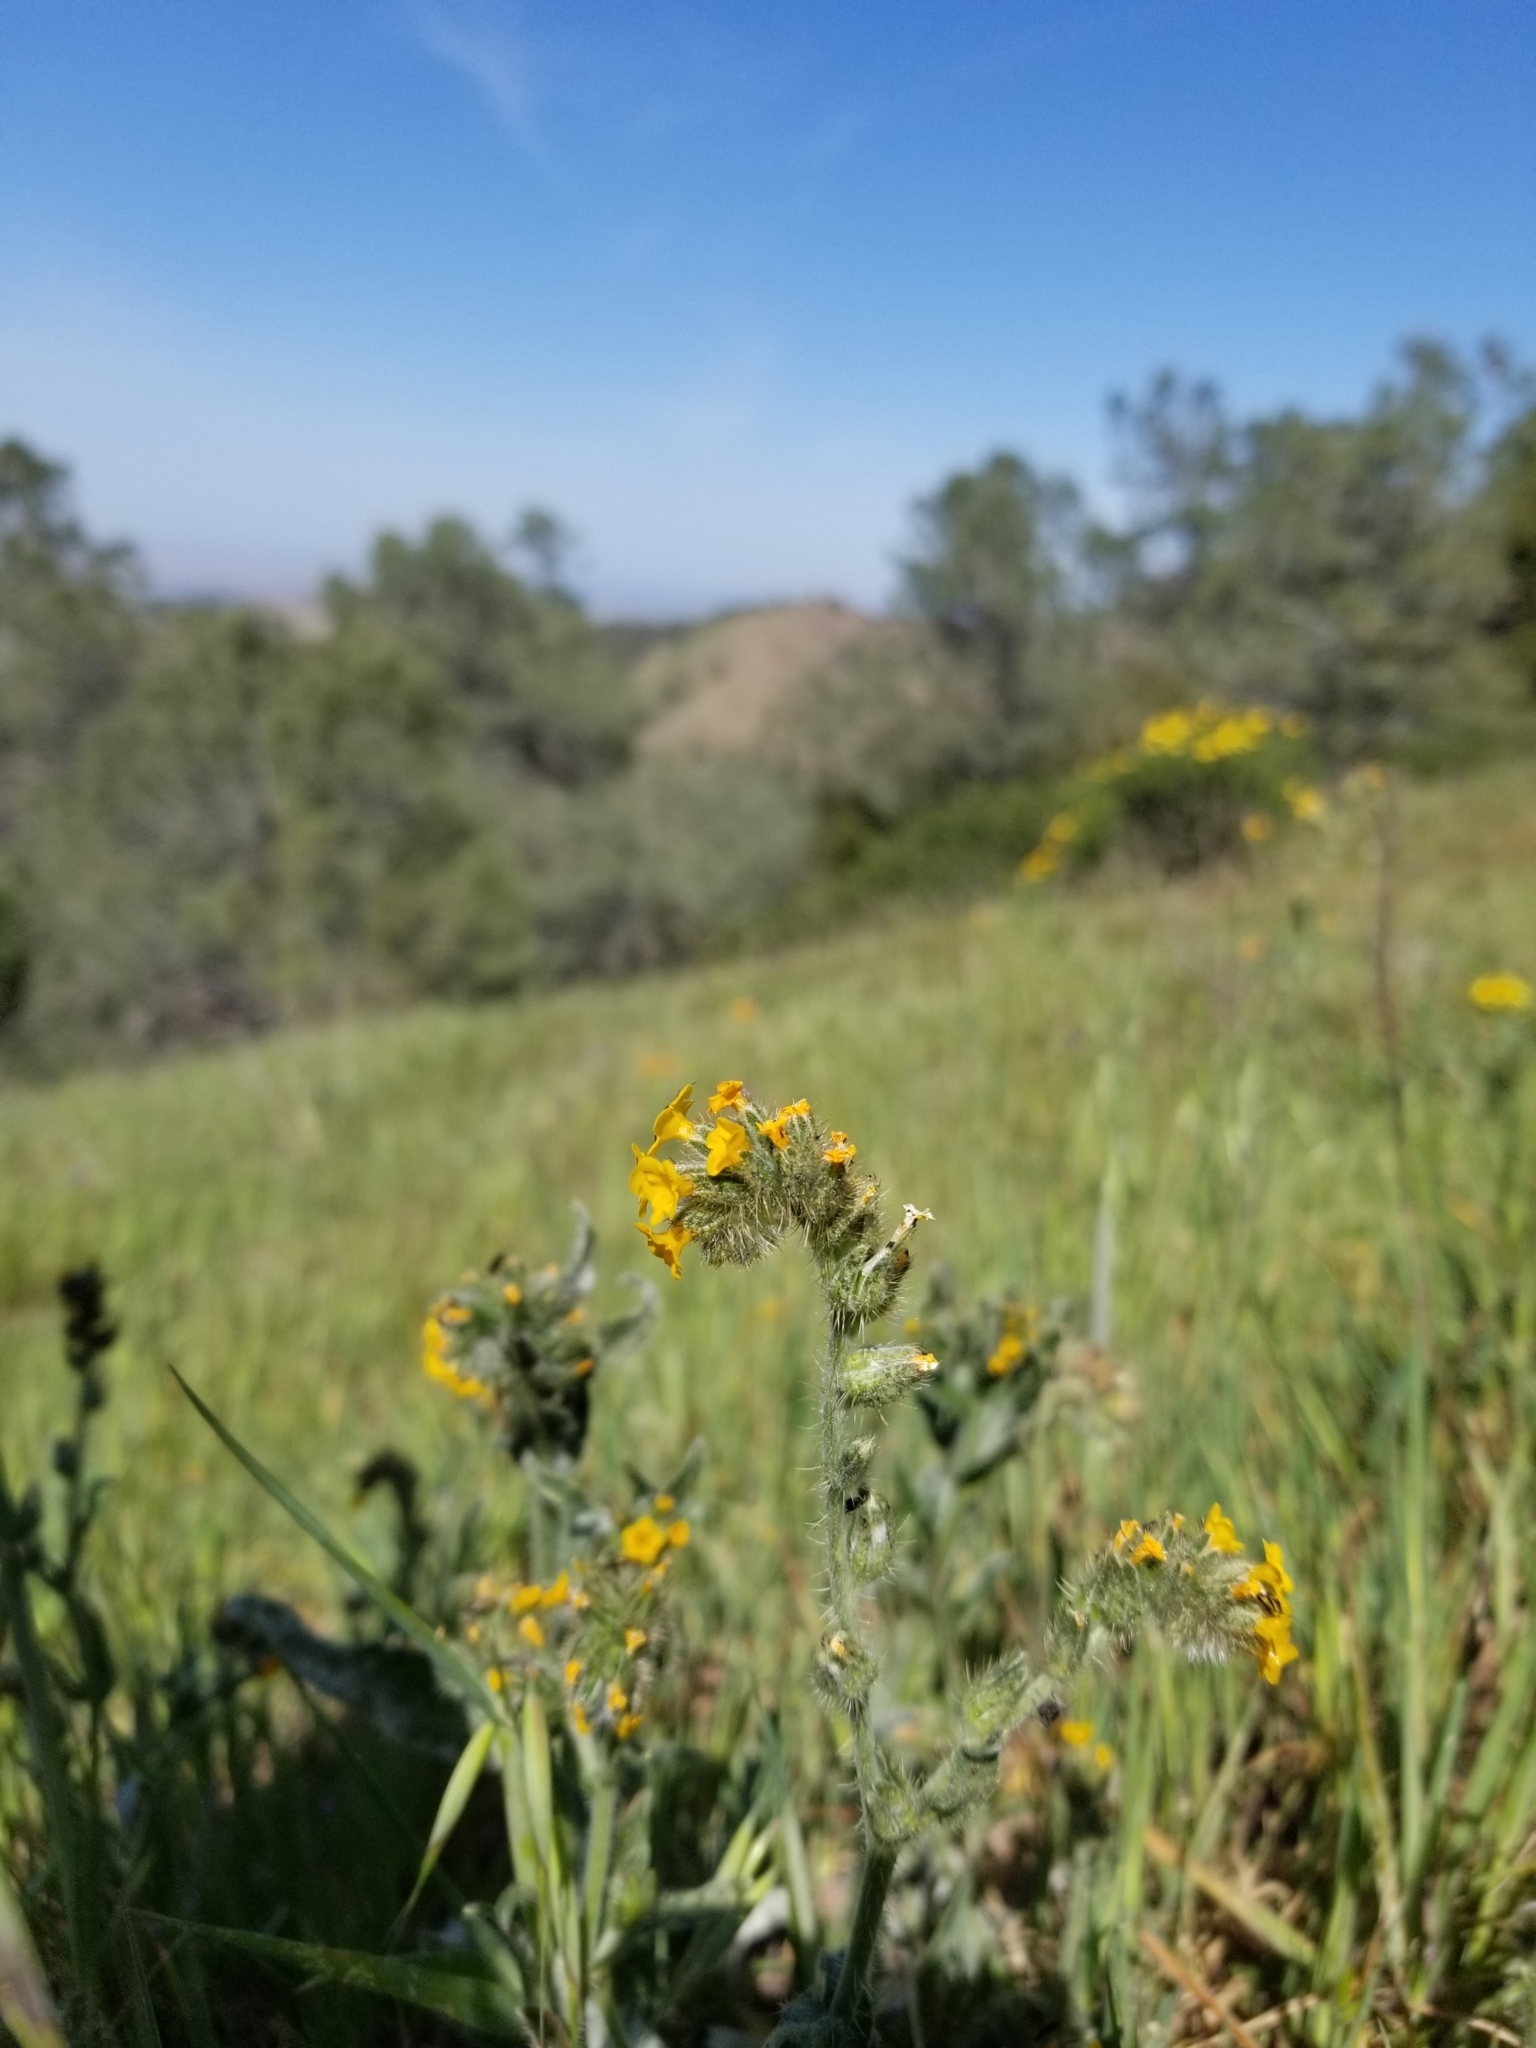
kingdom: Plantae
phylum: Tracheophyta
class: Magnoliopsida
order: Boraginales
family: Boraginaceae
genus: Amsinckia
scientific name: Amsinckia menziesii
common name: Menzies' fiddleneck
